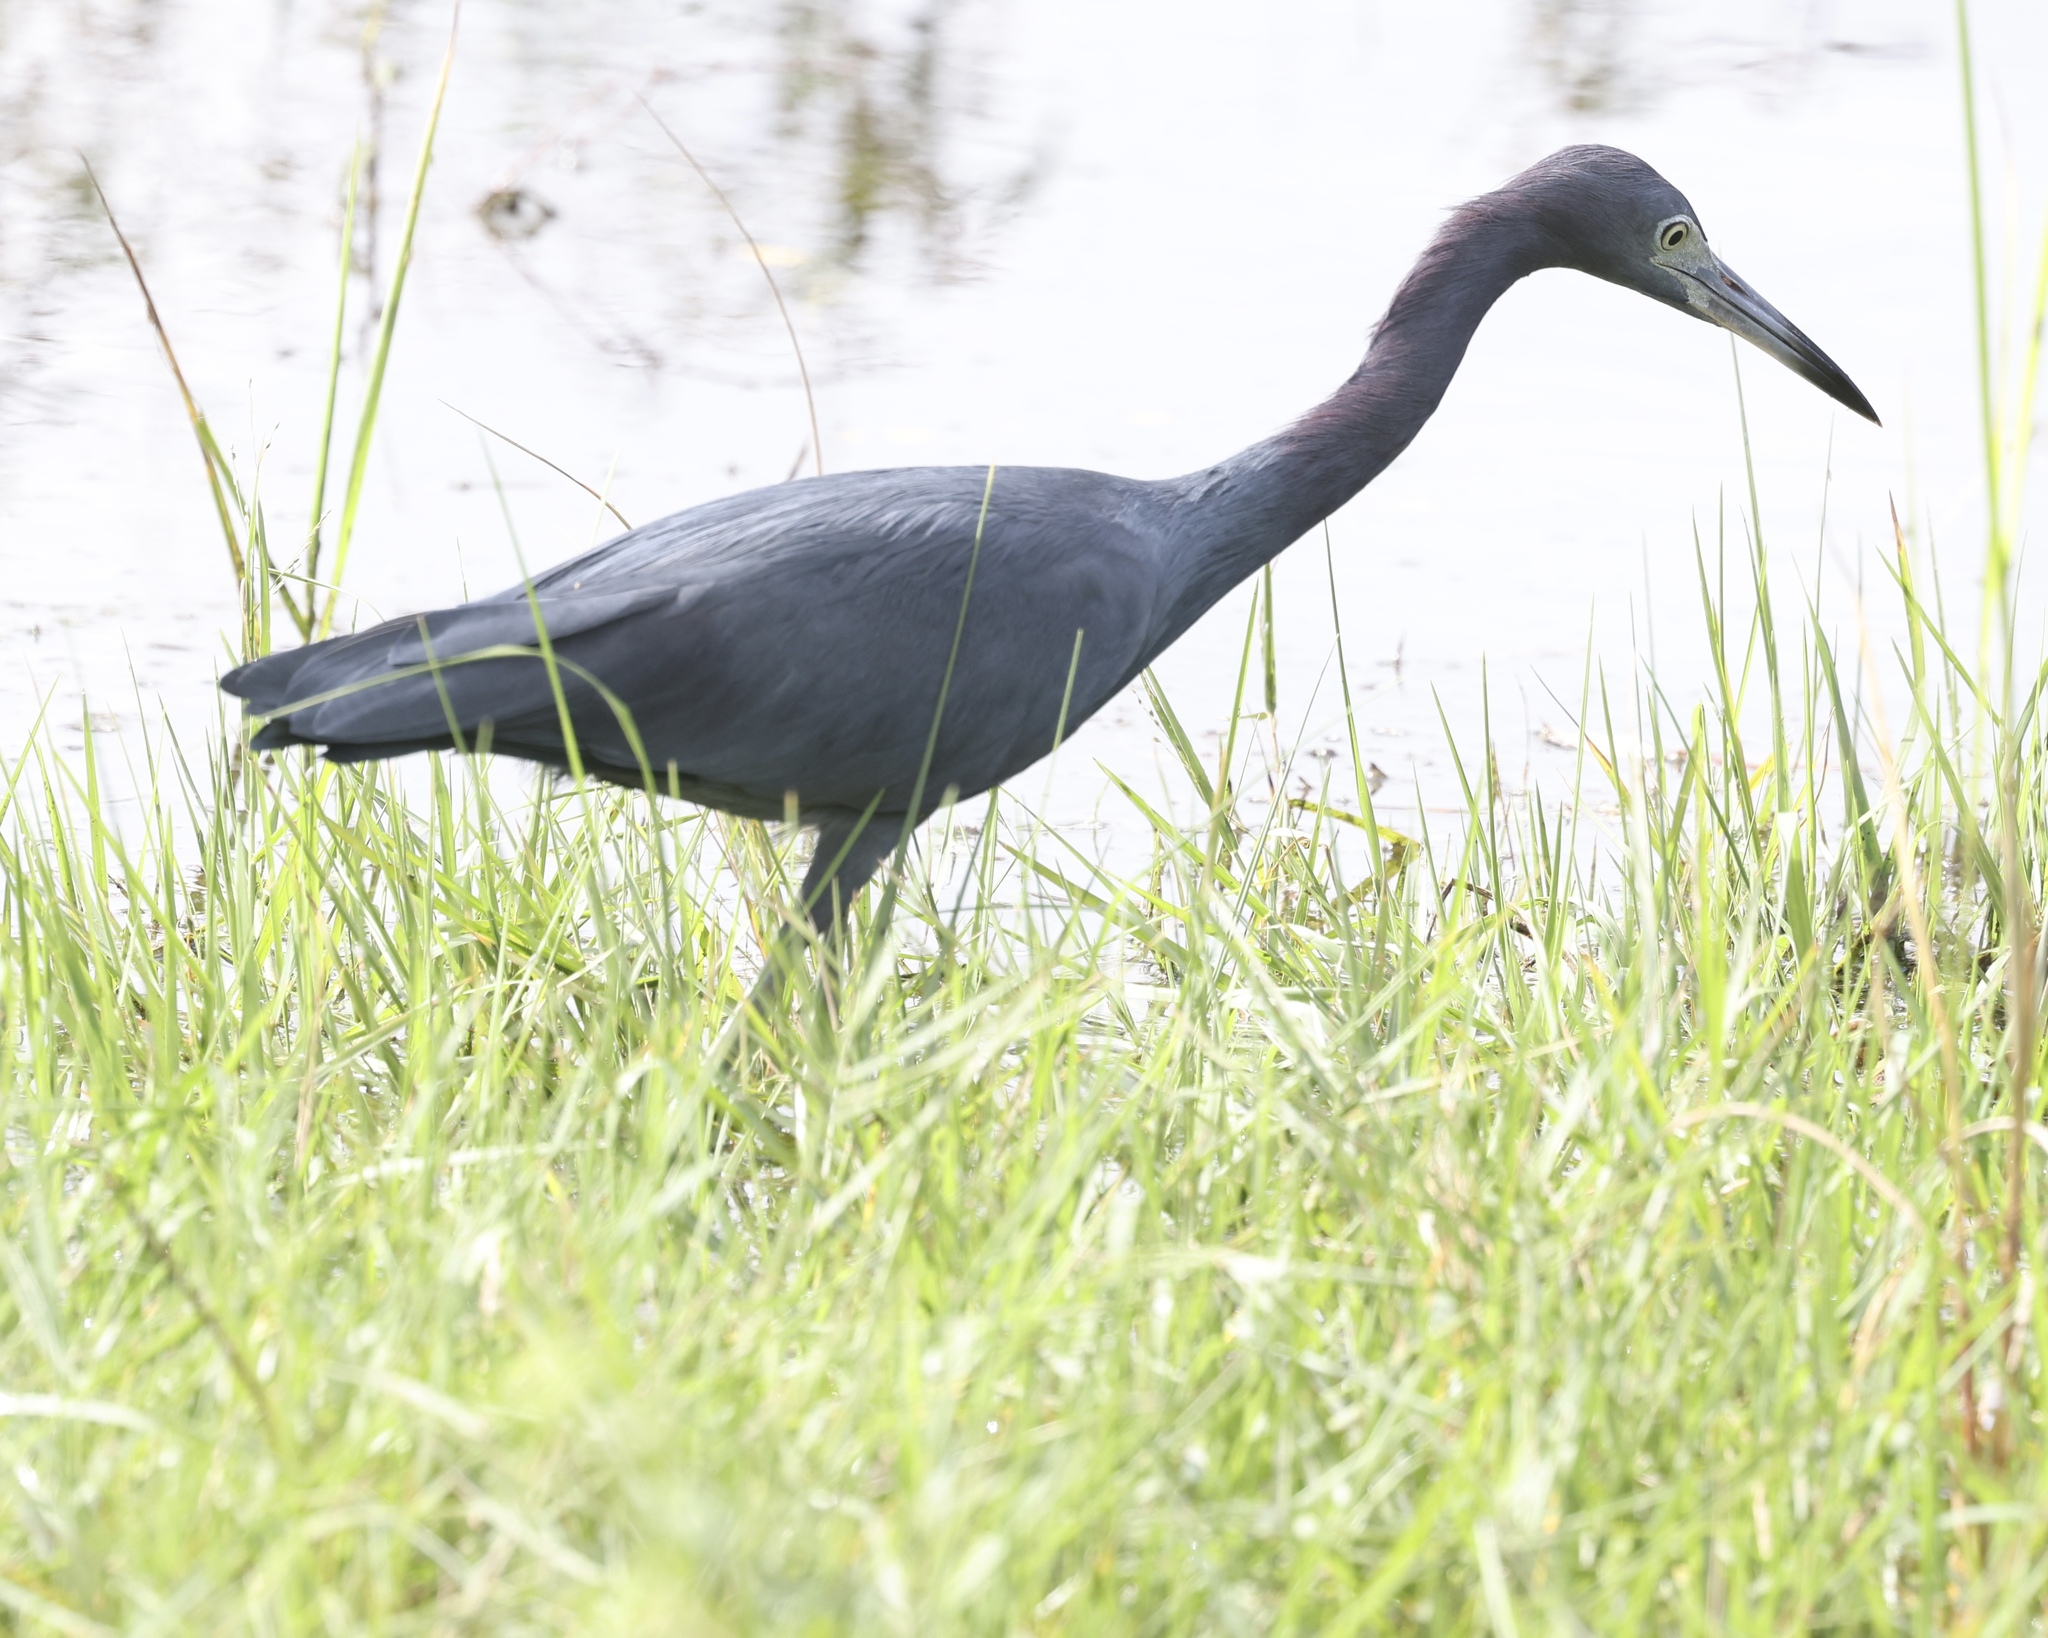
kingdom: Animalia
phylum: Chordata
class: Aves
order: Pelecaniformes
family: Ardeidae
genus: Egretta
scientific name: Egretta caerulea
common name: Little blue heron
